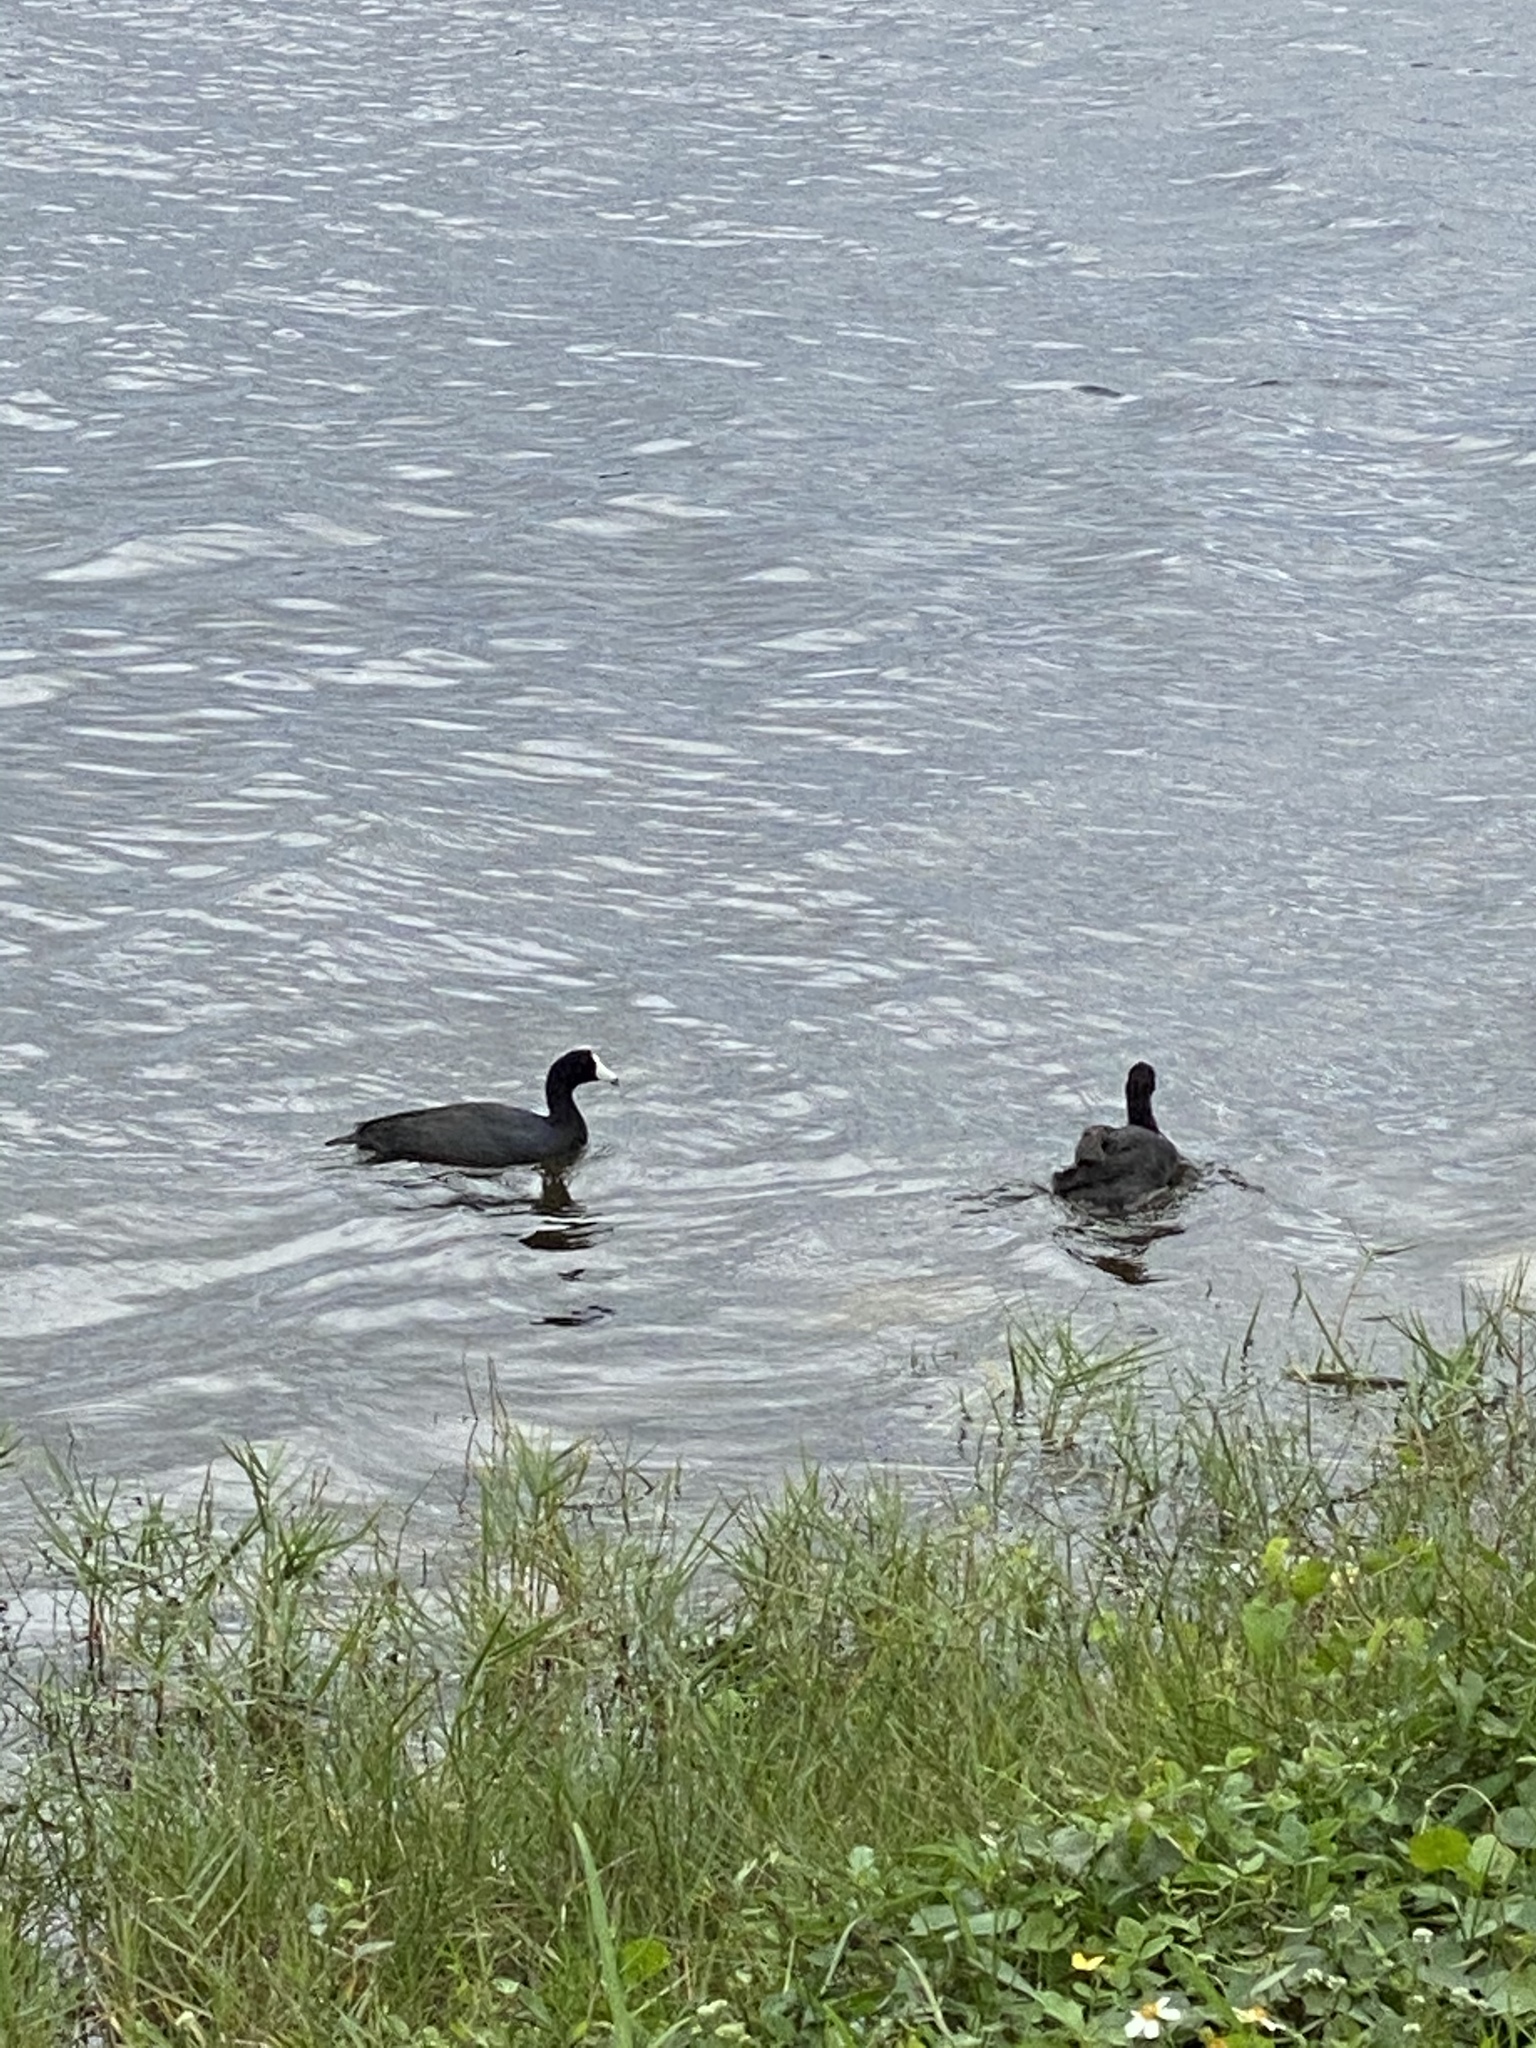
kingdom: Animalia
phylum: Chordata
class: Aves
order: Gruiformes
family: Rallidae
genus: Fulica
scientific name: Fulica americana
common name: American coot
